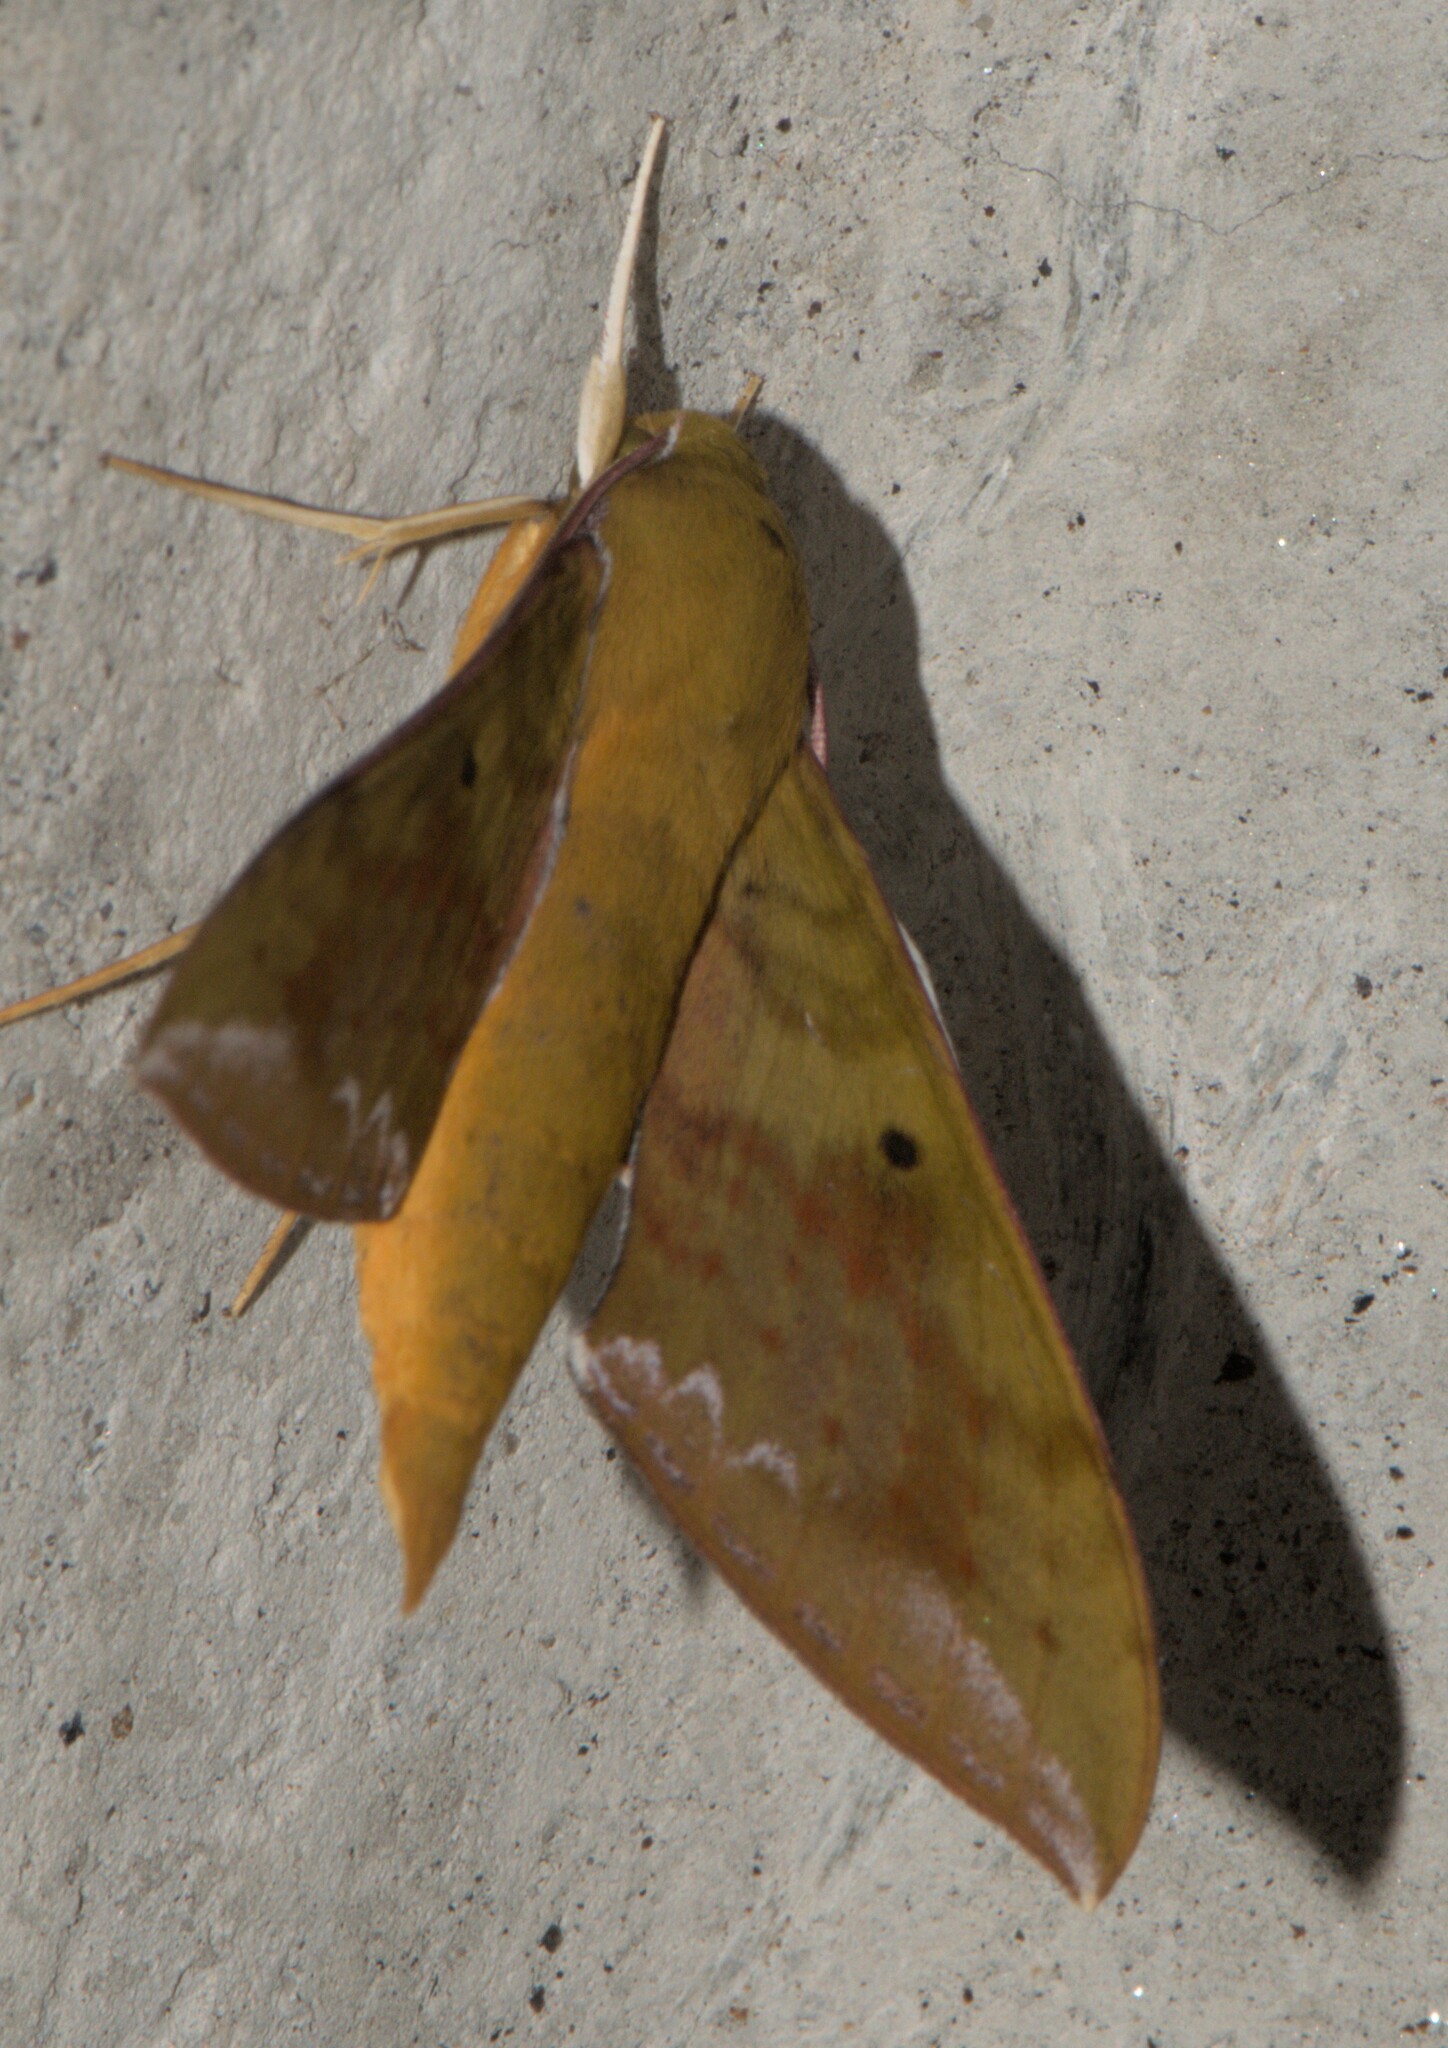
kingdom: Animalia
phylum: Arthropoda
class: Insecta
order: Lepidoptera
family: Sphingidae
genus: Rhagastis
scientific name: Rhagastis olivacea
